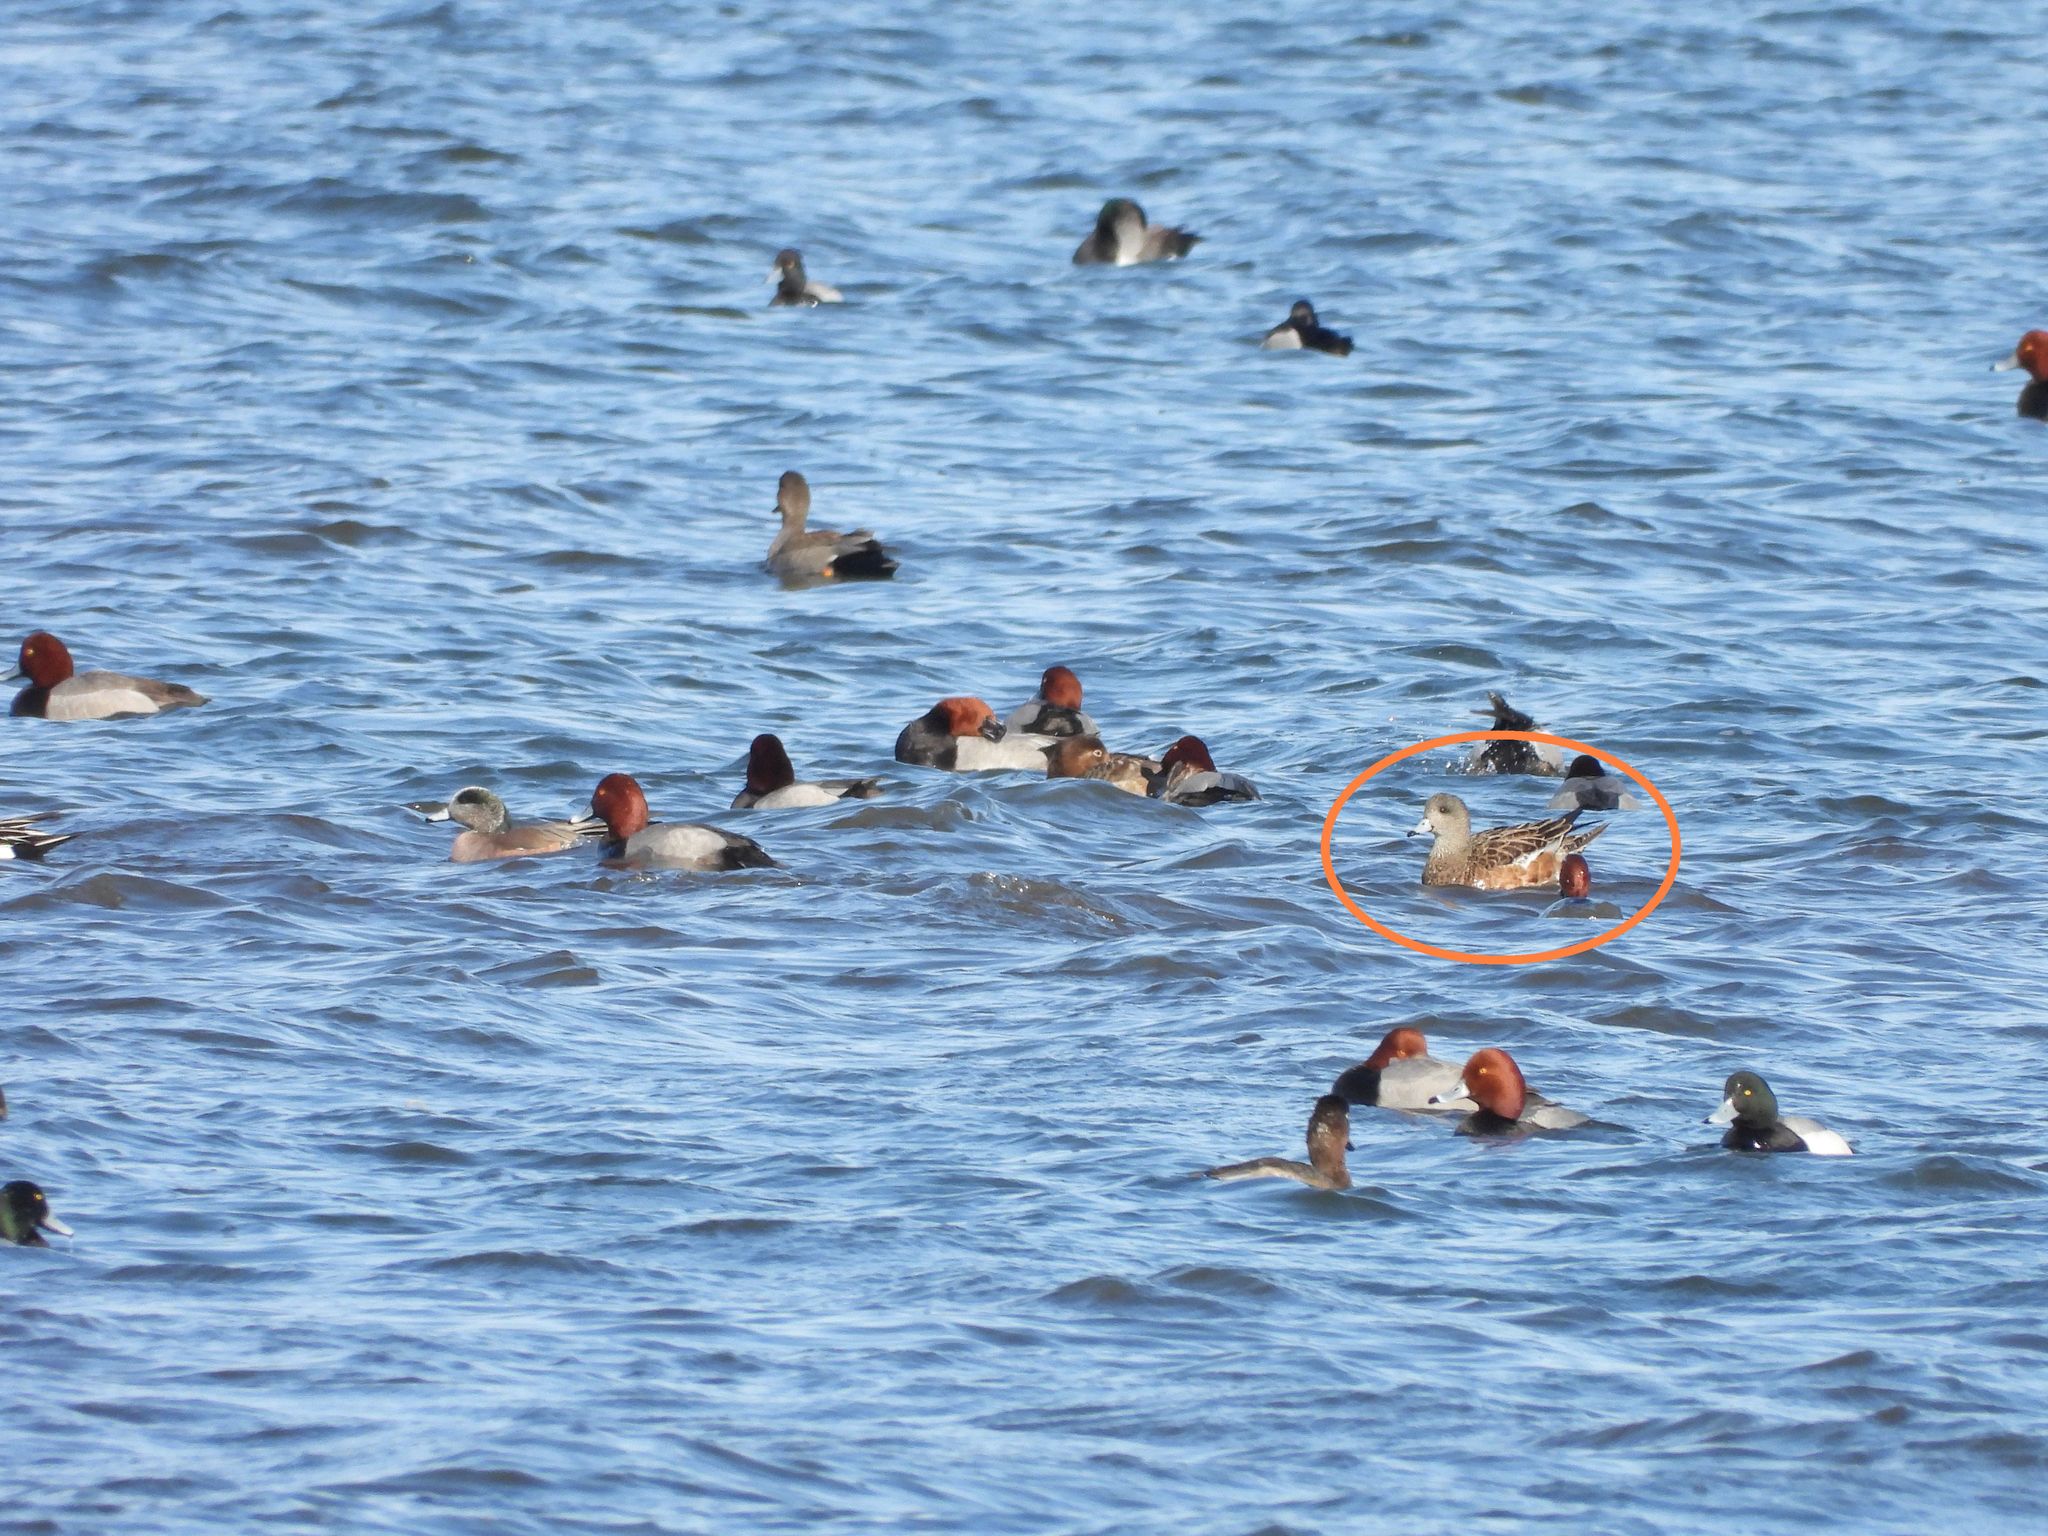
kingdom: Animalia
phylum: Chordata
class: Aves
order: Anseriformes
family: Anatidae
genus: Mareca
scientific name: Mareca americana
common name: American wigeon
